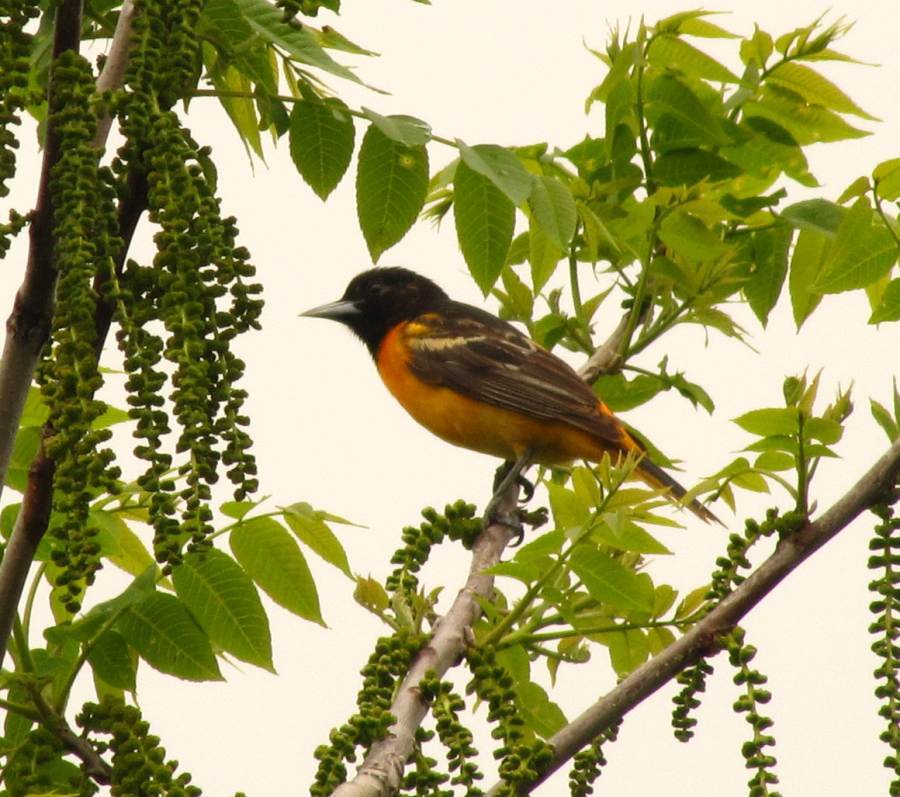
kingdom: Animalia
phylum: Chordata
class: Aves
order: Passeriformes
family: Icteridae
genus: Icterus
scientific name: Icterus galbula
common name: Baltimore oriole
